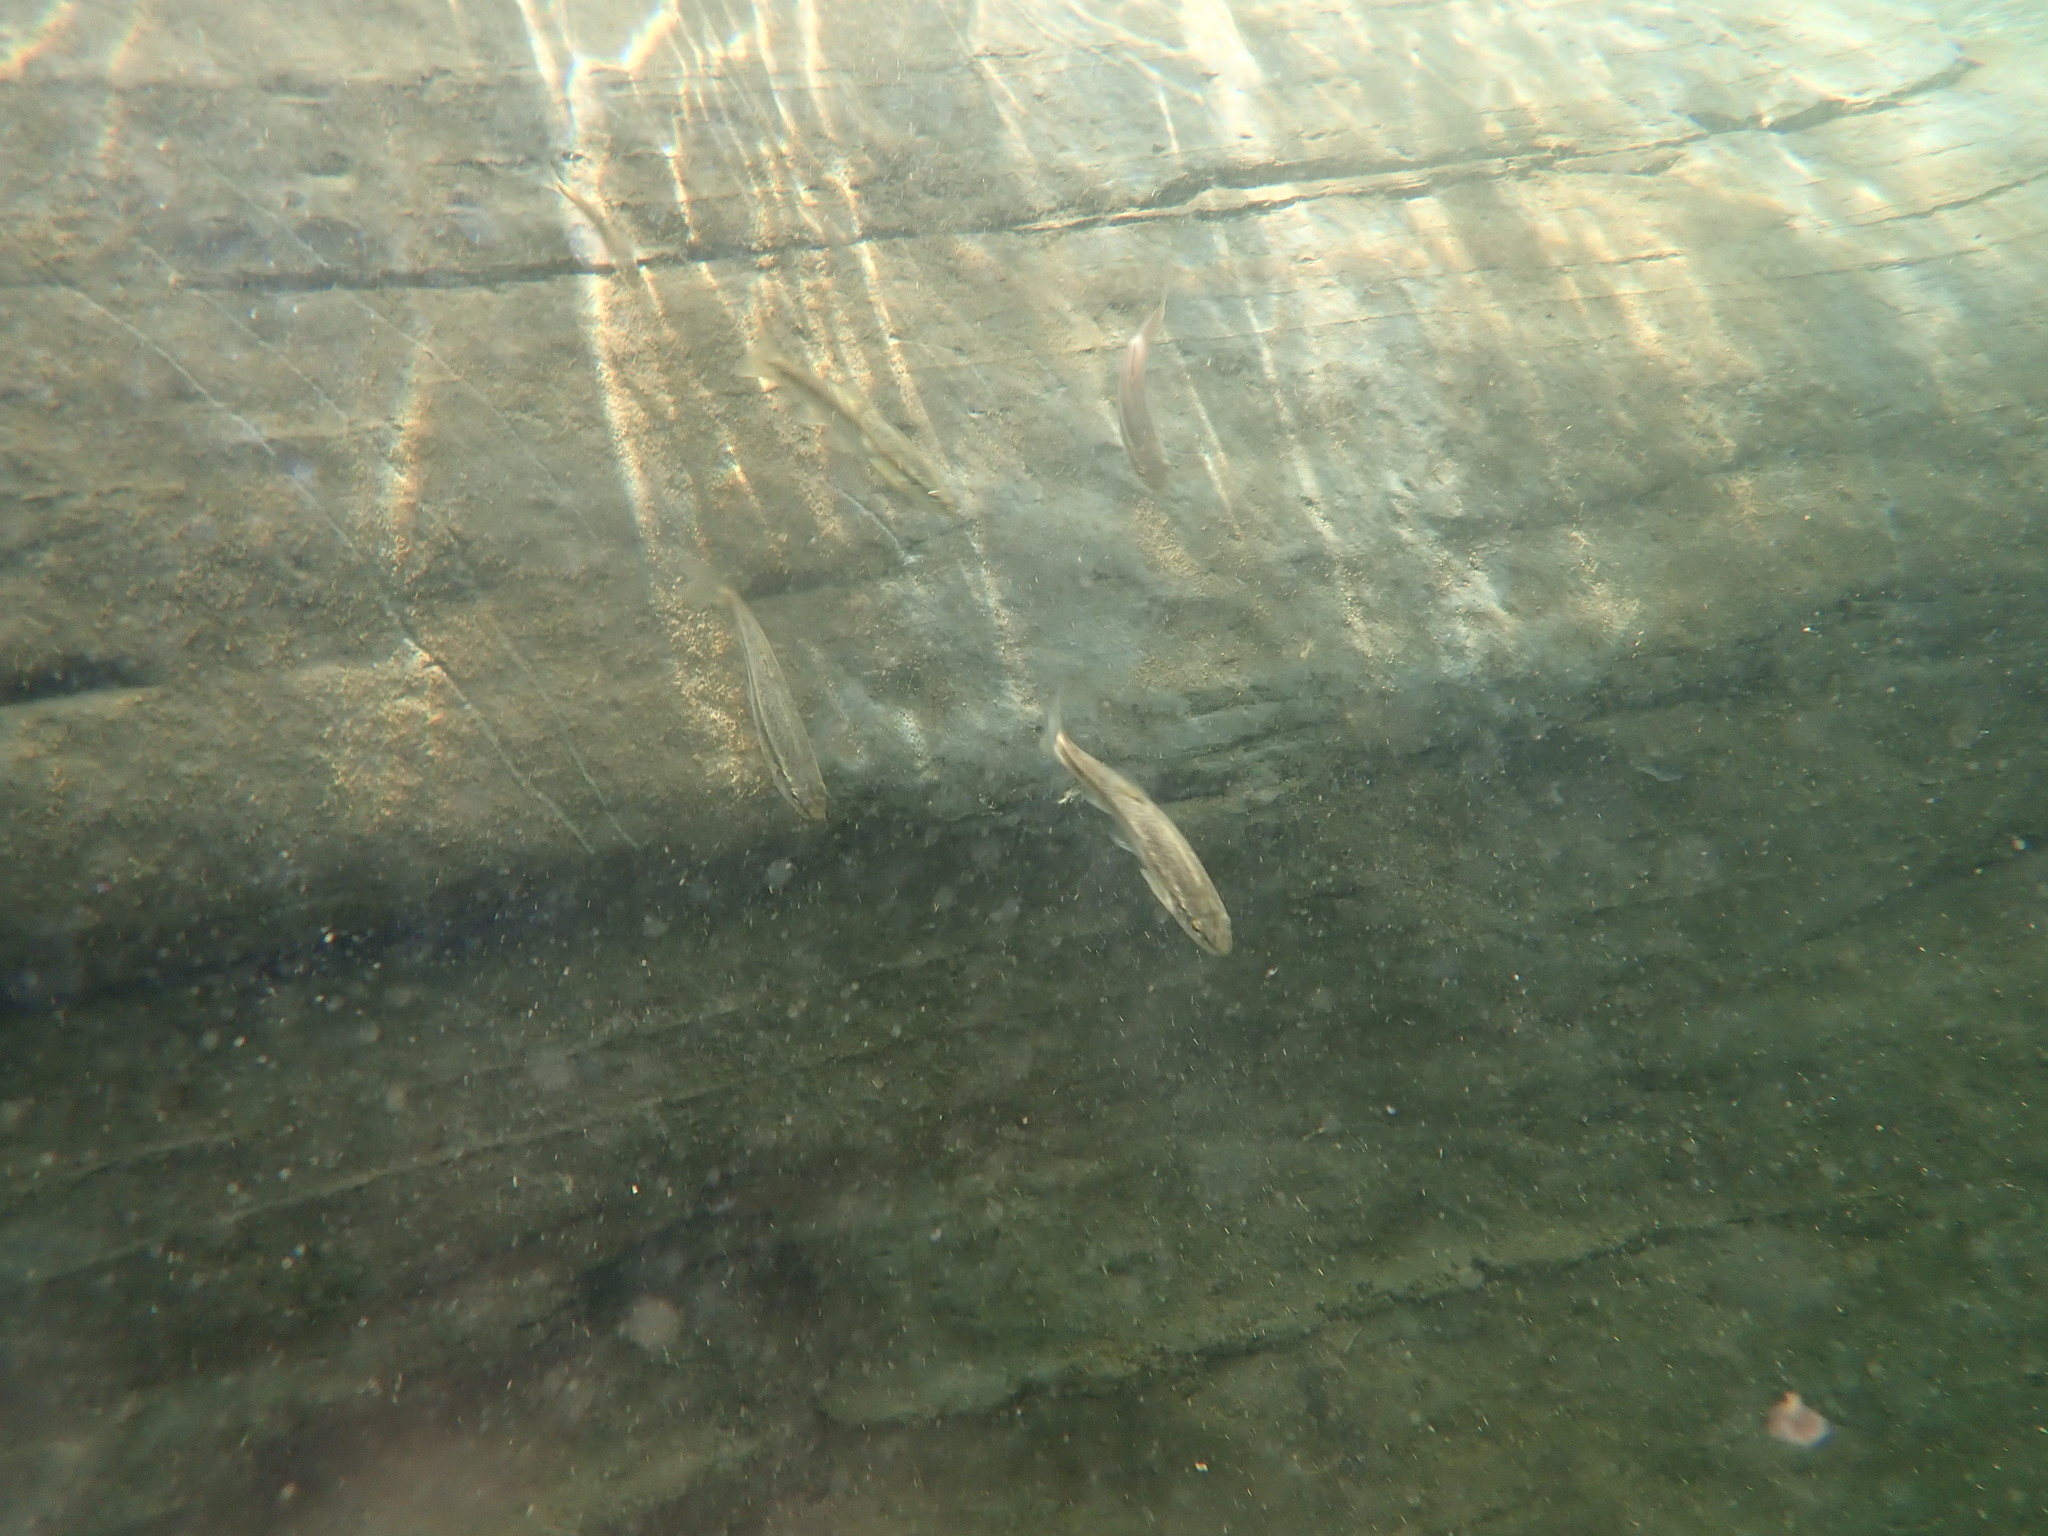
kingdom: Animalia
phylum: Chordata
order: Cypriniformes
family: Cyprinidae
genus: Rhinichthys
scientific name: Rhinichthys obtusus
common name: Western blacknose dace
